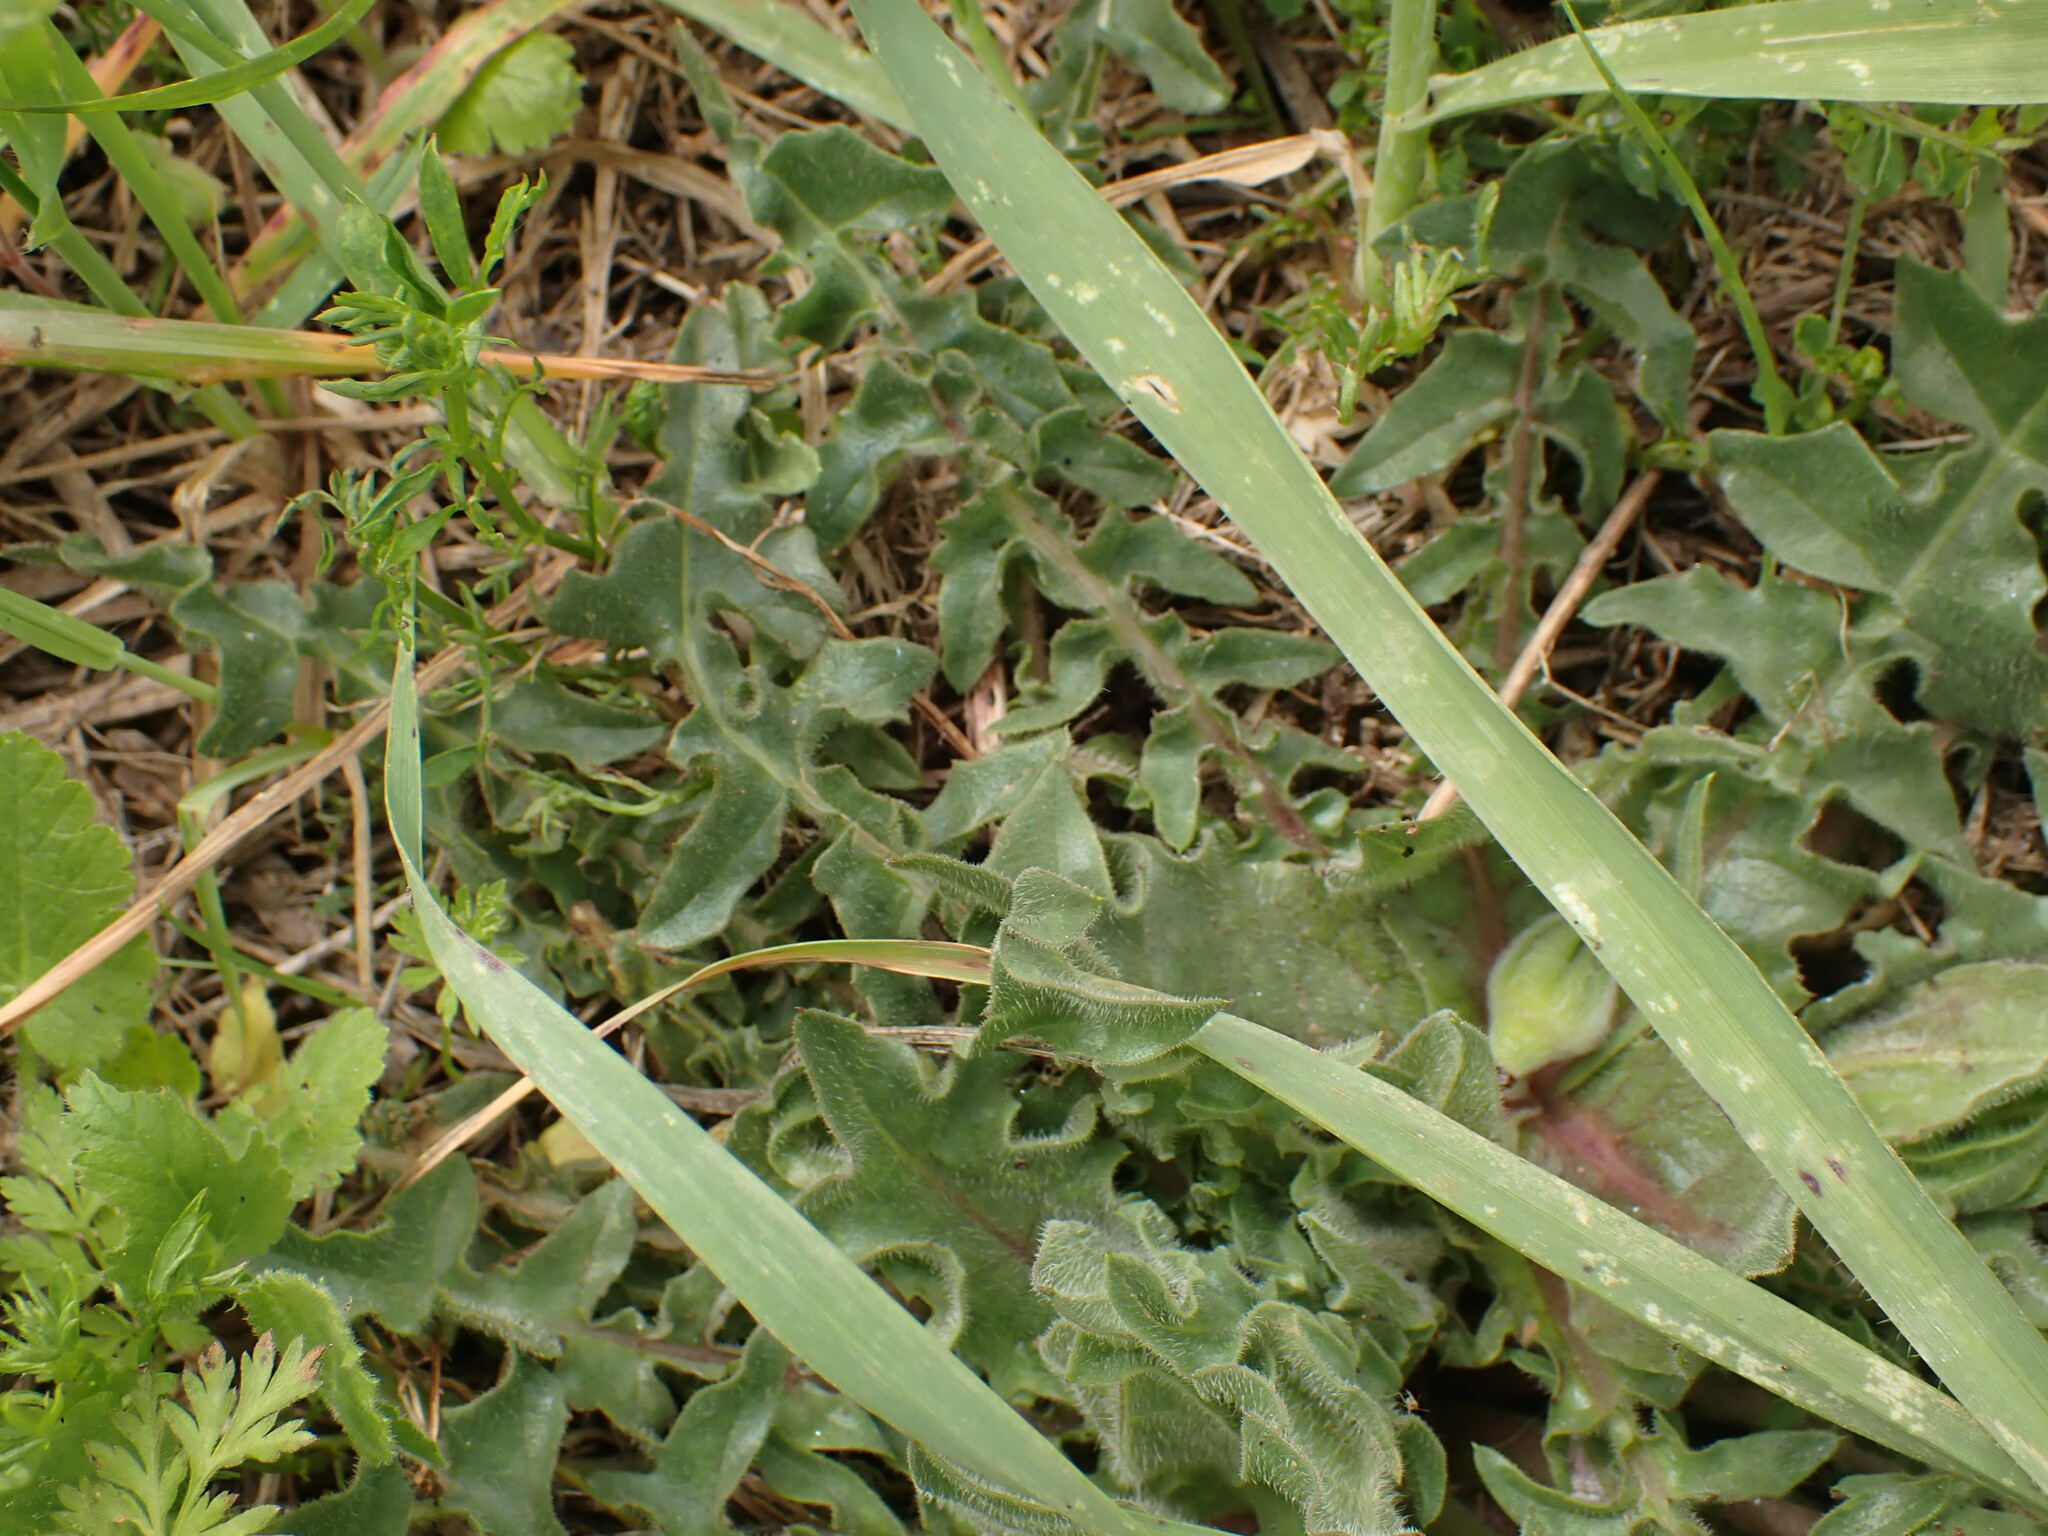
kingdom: Plantae
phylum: Tracheophyta
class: Magnoliopsida
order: Asterales
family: Asteraceae
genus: Urospermum
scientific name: Urospermum dalechampii
